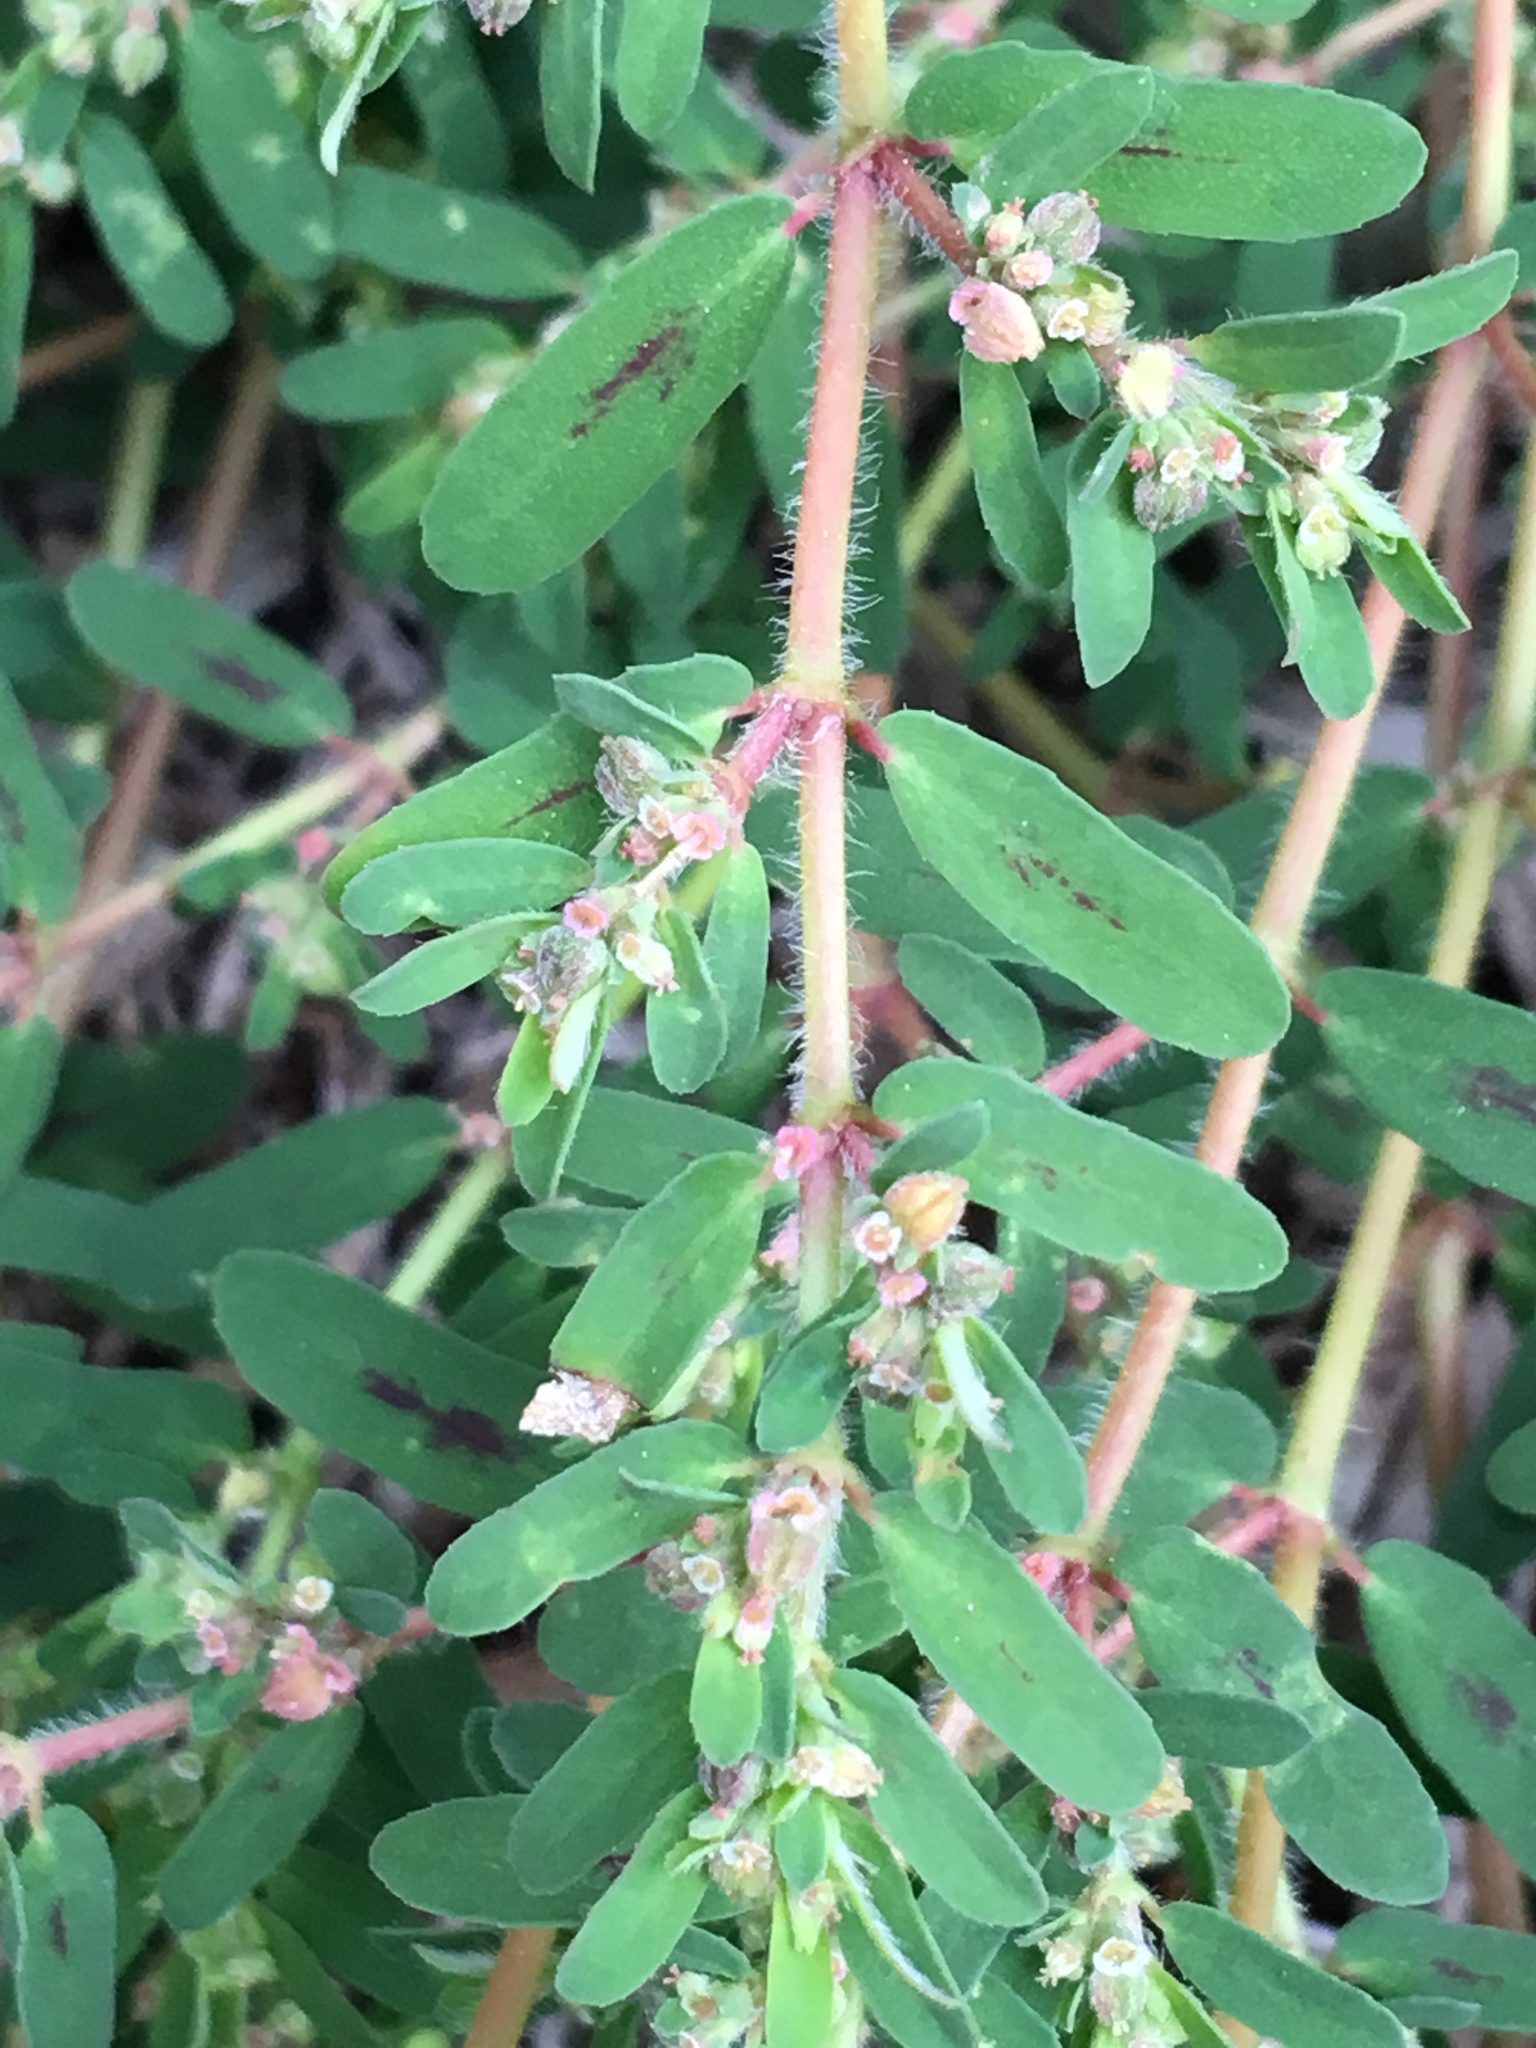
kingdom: Plantae
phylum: Tracheophyta
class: Magnoliopsida
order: Malpighiales
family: Euphorbiaceae
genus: Euphorbia
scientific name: Euphorbia maculata
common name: Spotted spurge
